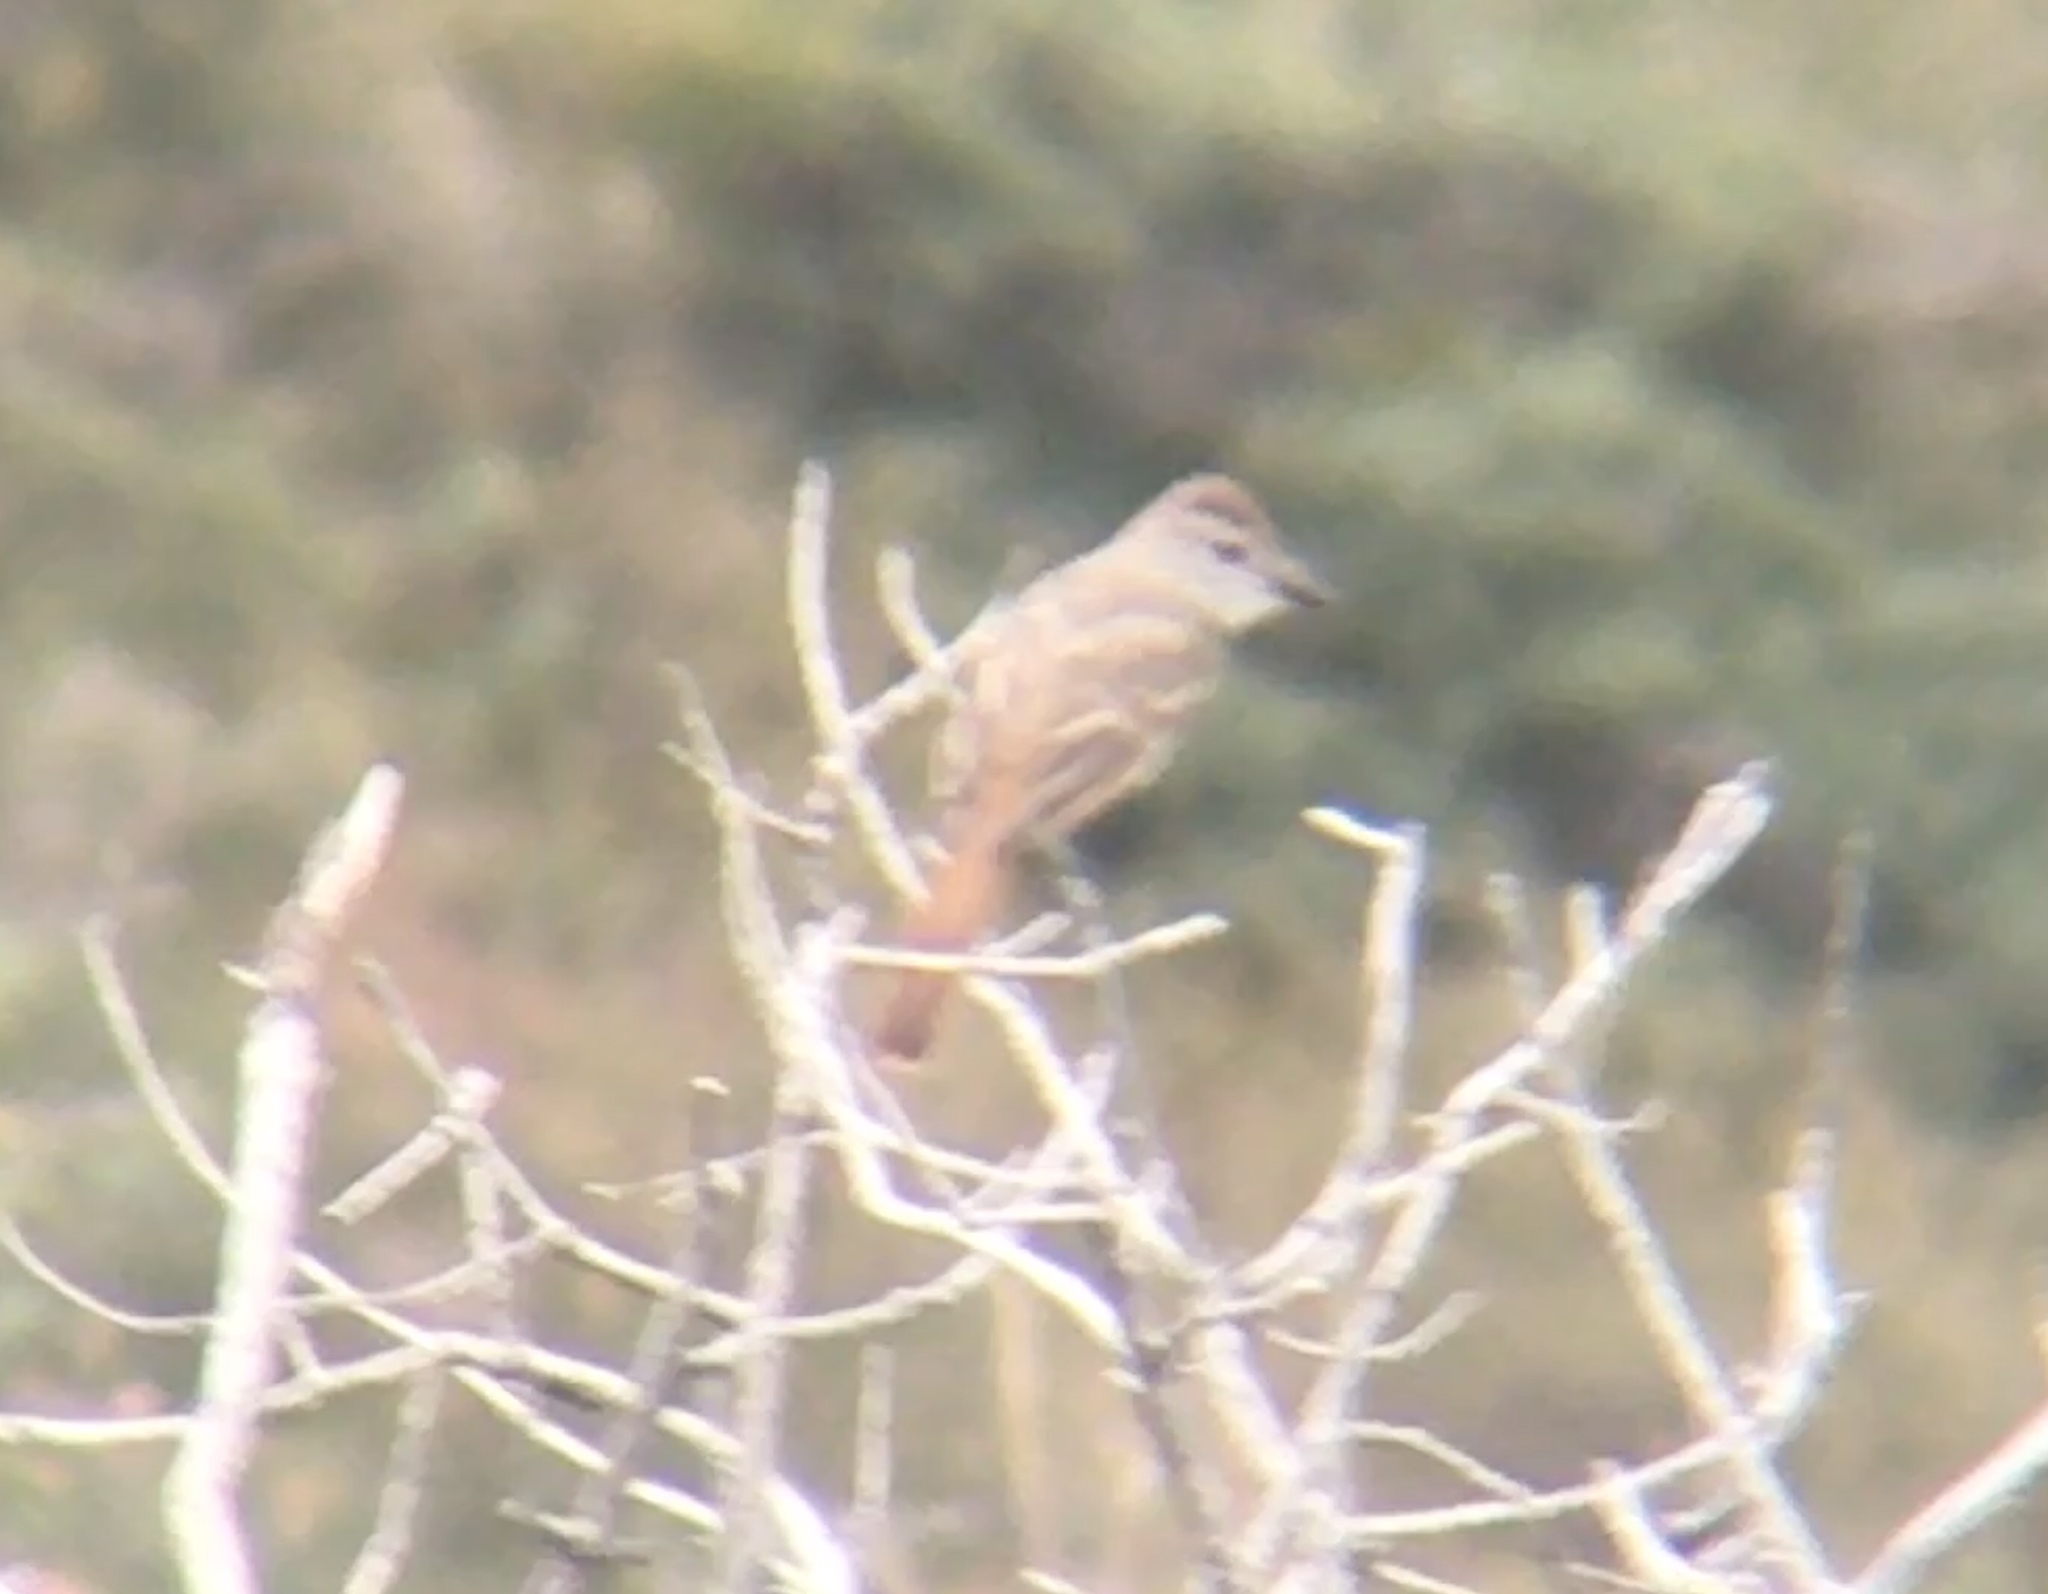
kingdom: Animalia
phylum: Chordata
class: Aves
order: Passeriformes
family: Tyrannidae
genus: Myiarchus
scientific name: Myiarchus
